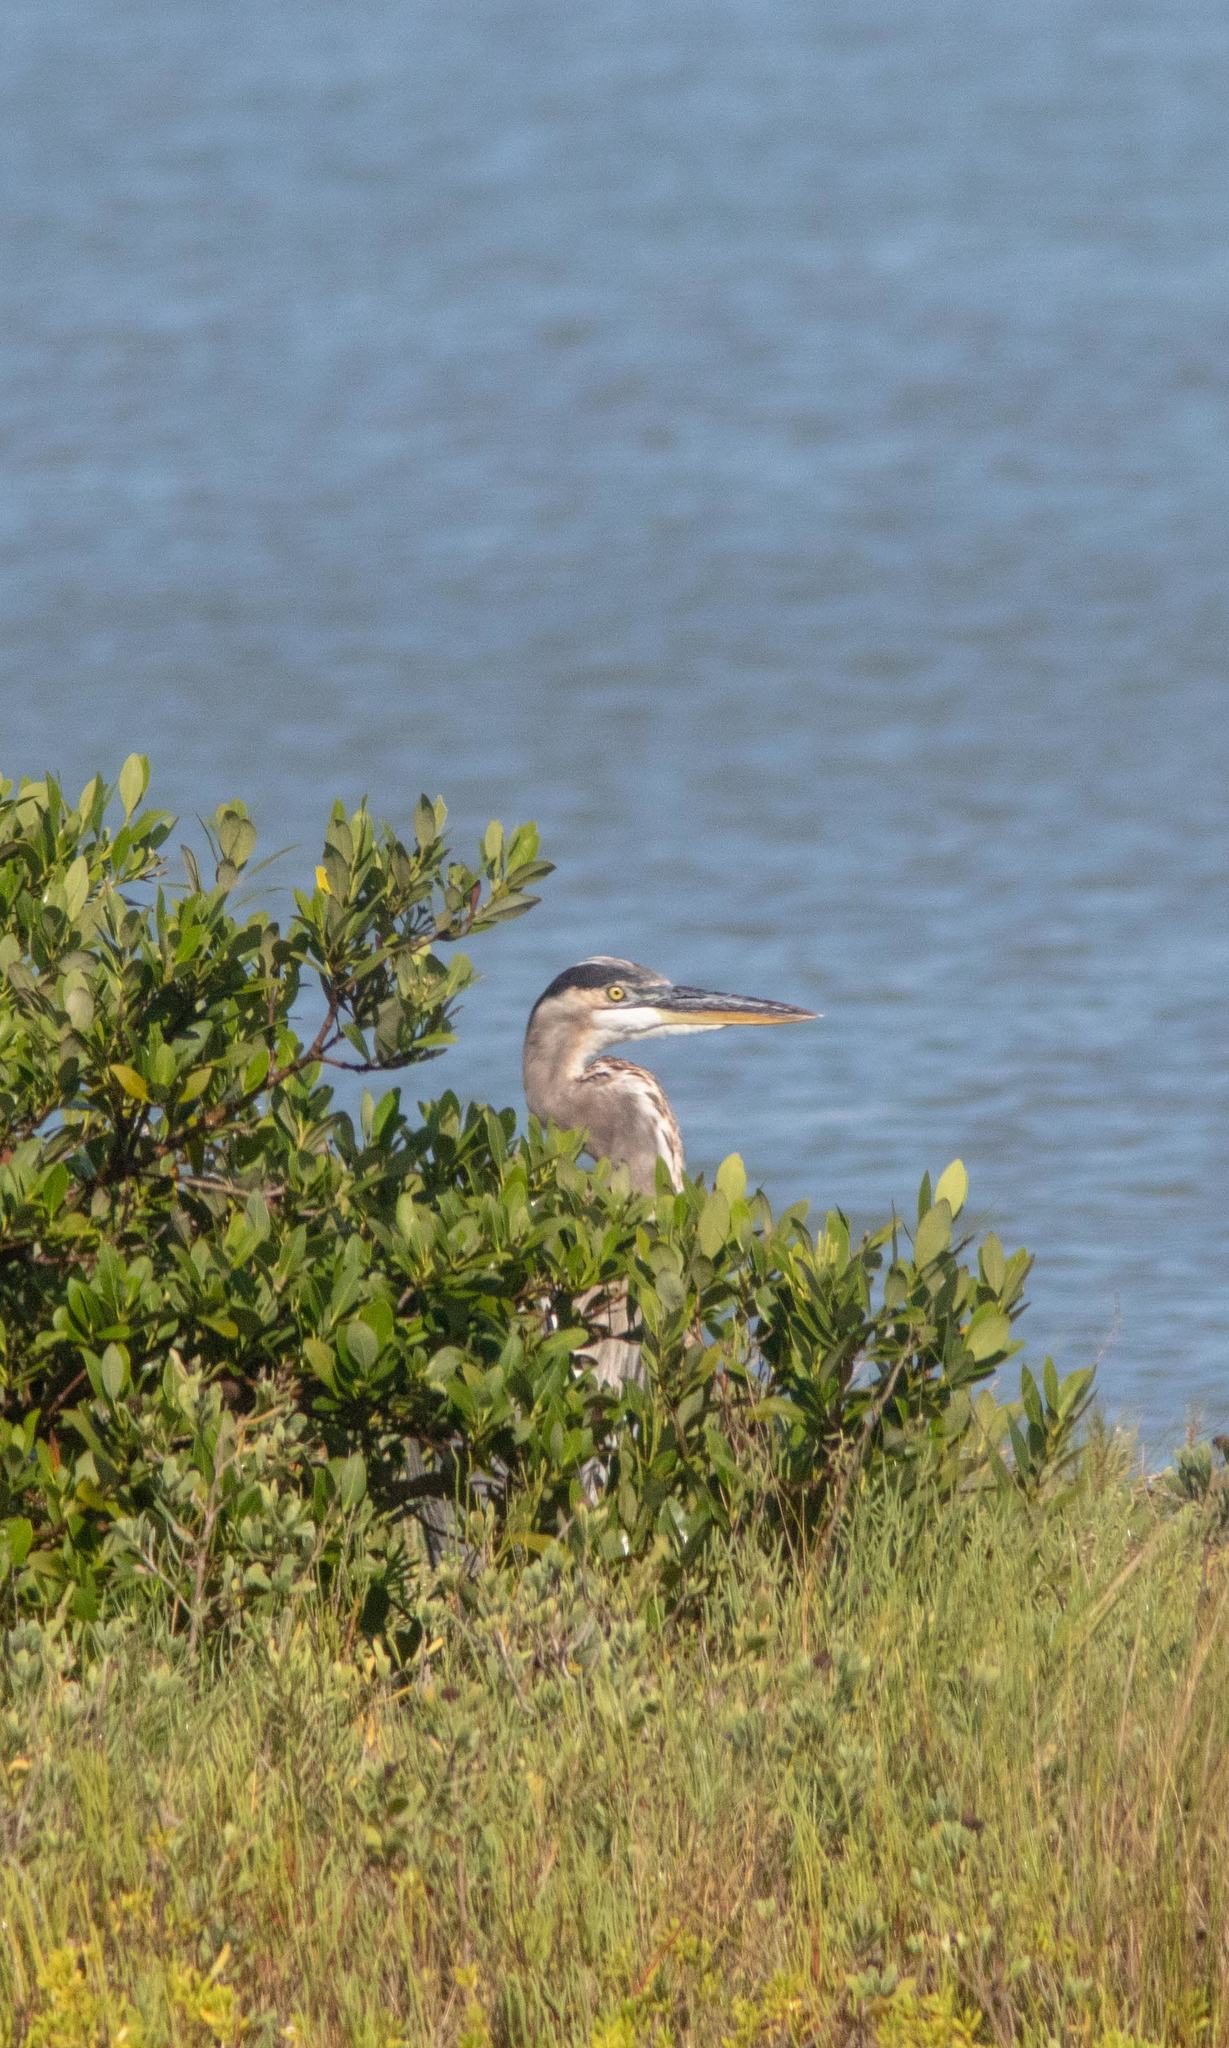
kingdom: Animalia
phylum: Chordata
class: Aves
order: Pelecaniformes
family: Ardeidae
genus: Ardea
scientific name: Ardea herodias
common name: Great blue heron
